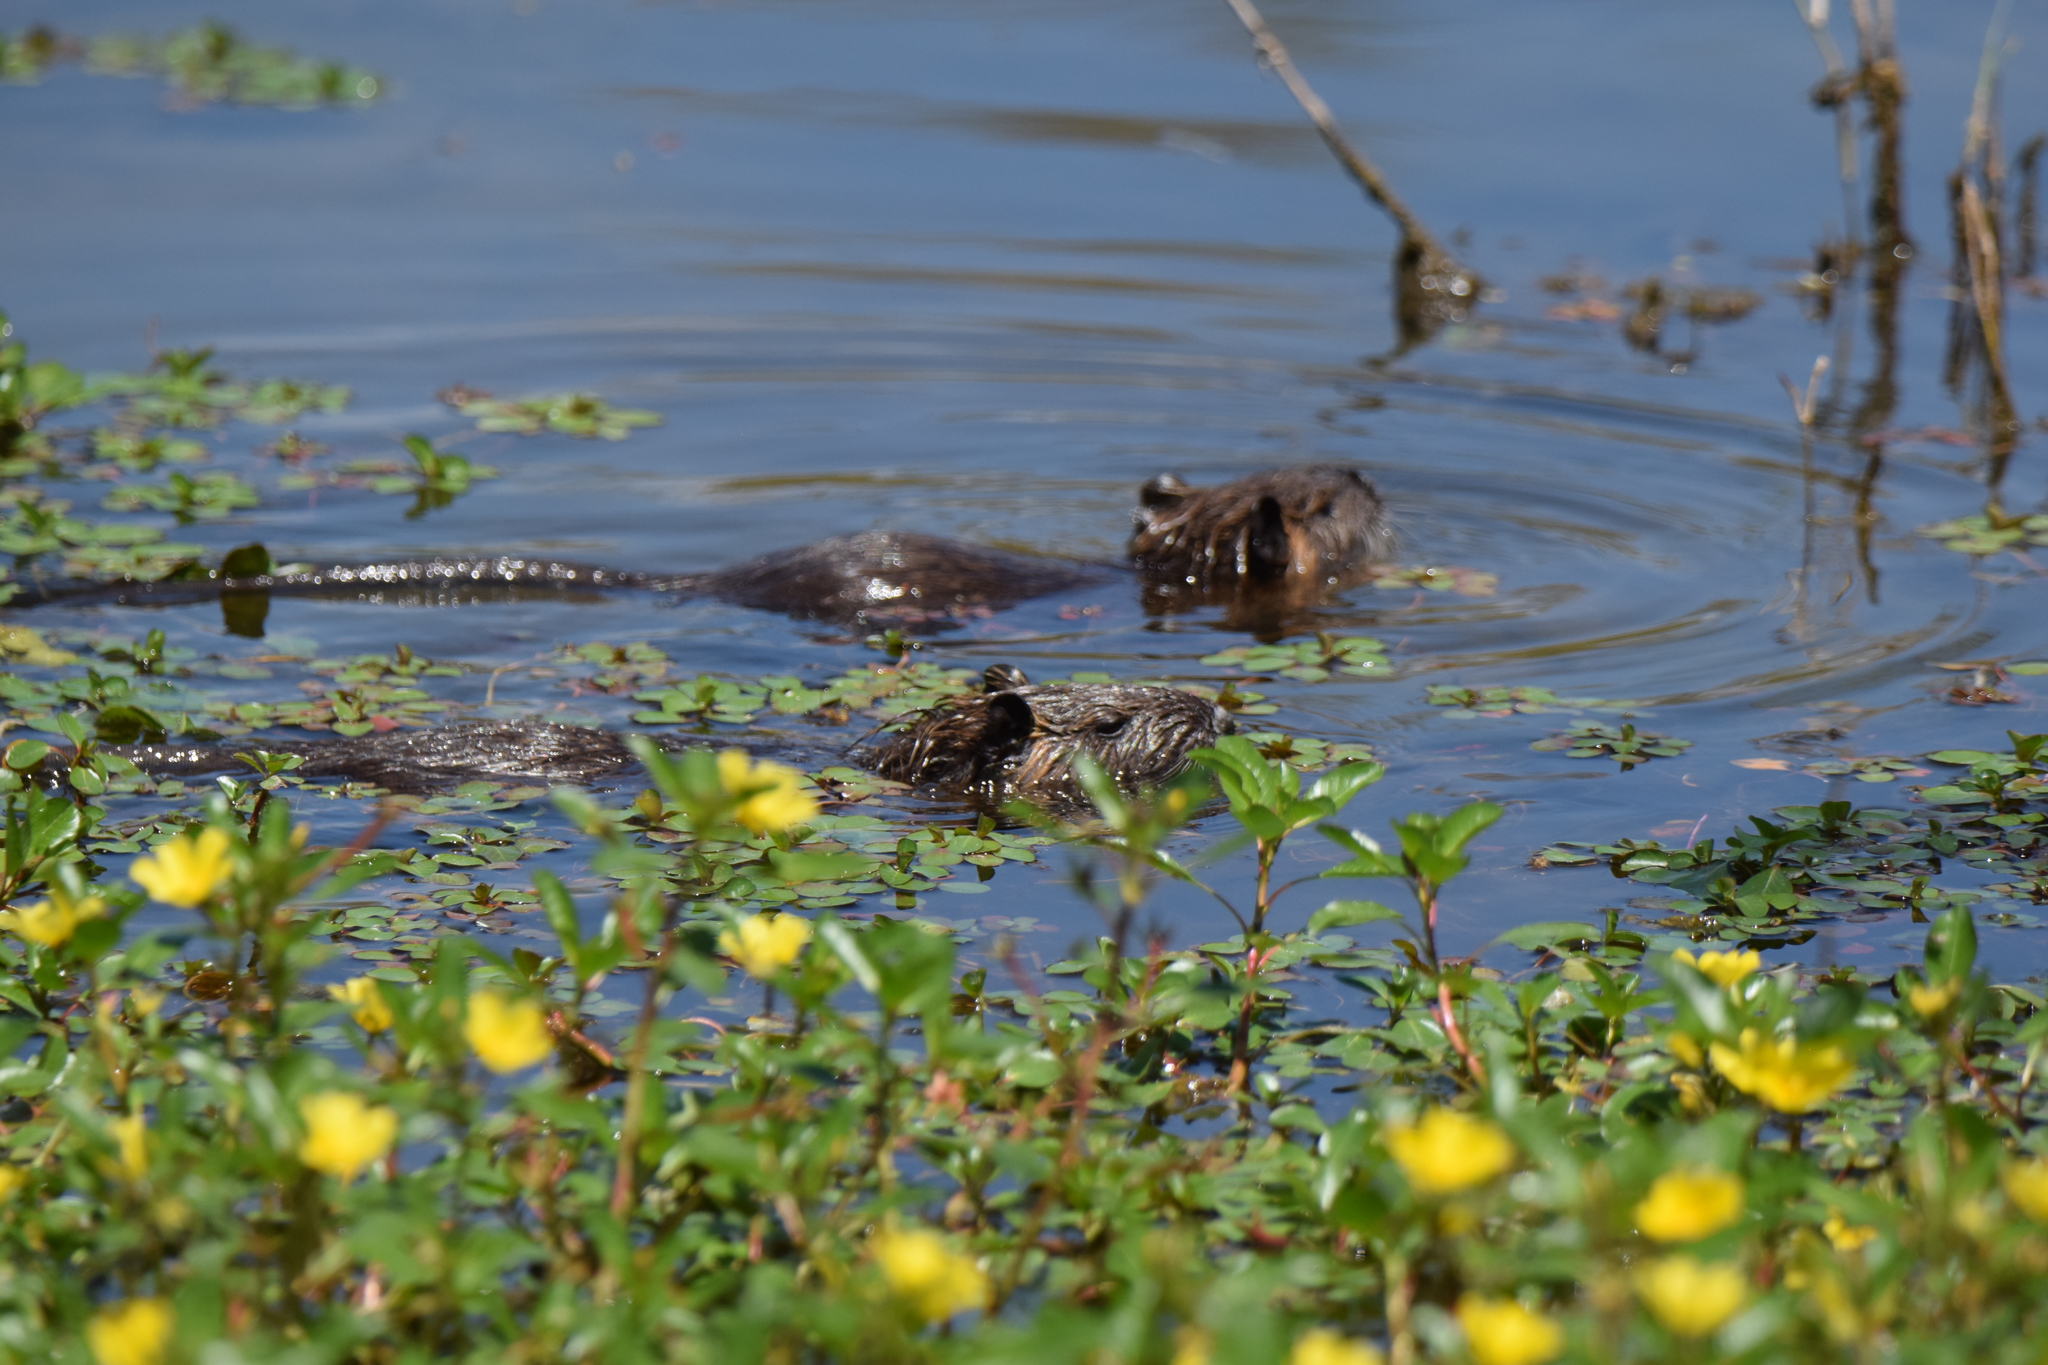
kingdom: Animalia
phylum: Chordata
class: Mammalia
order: Rodentia
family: Myocastoridae
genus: Myocastor
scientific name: Myocastor coypus
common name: Coypu
